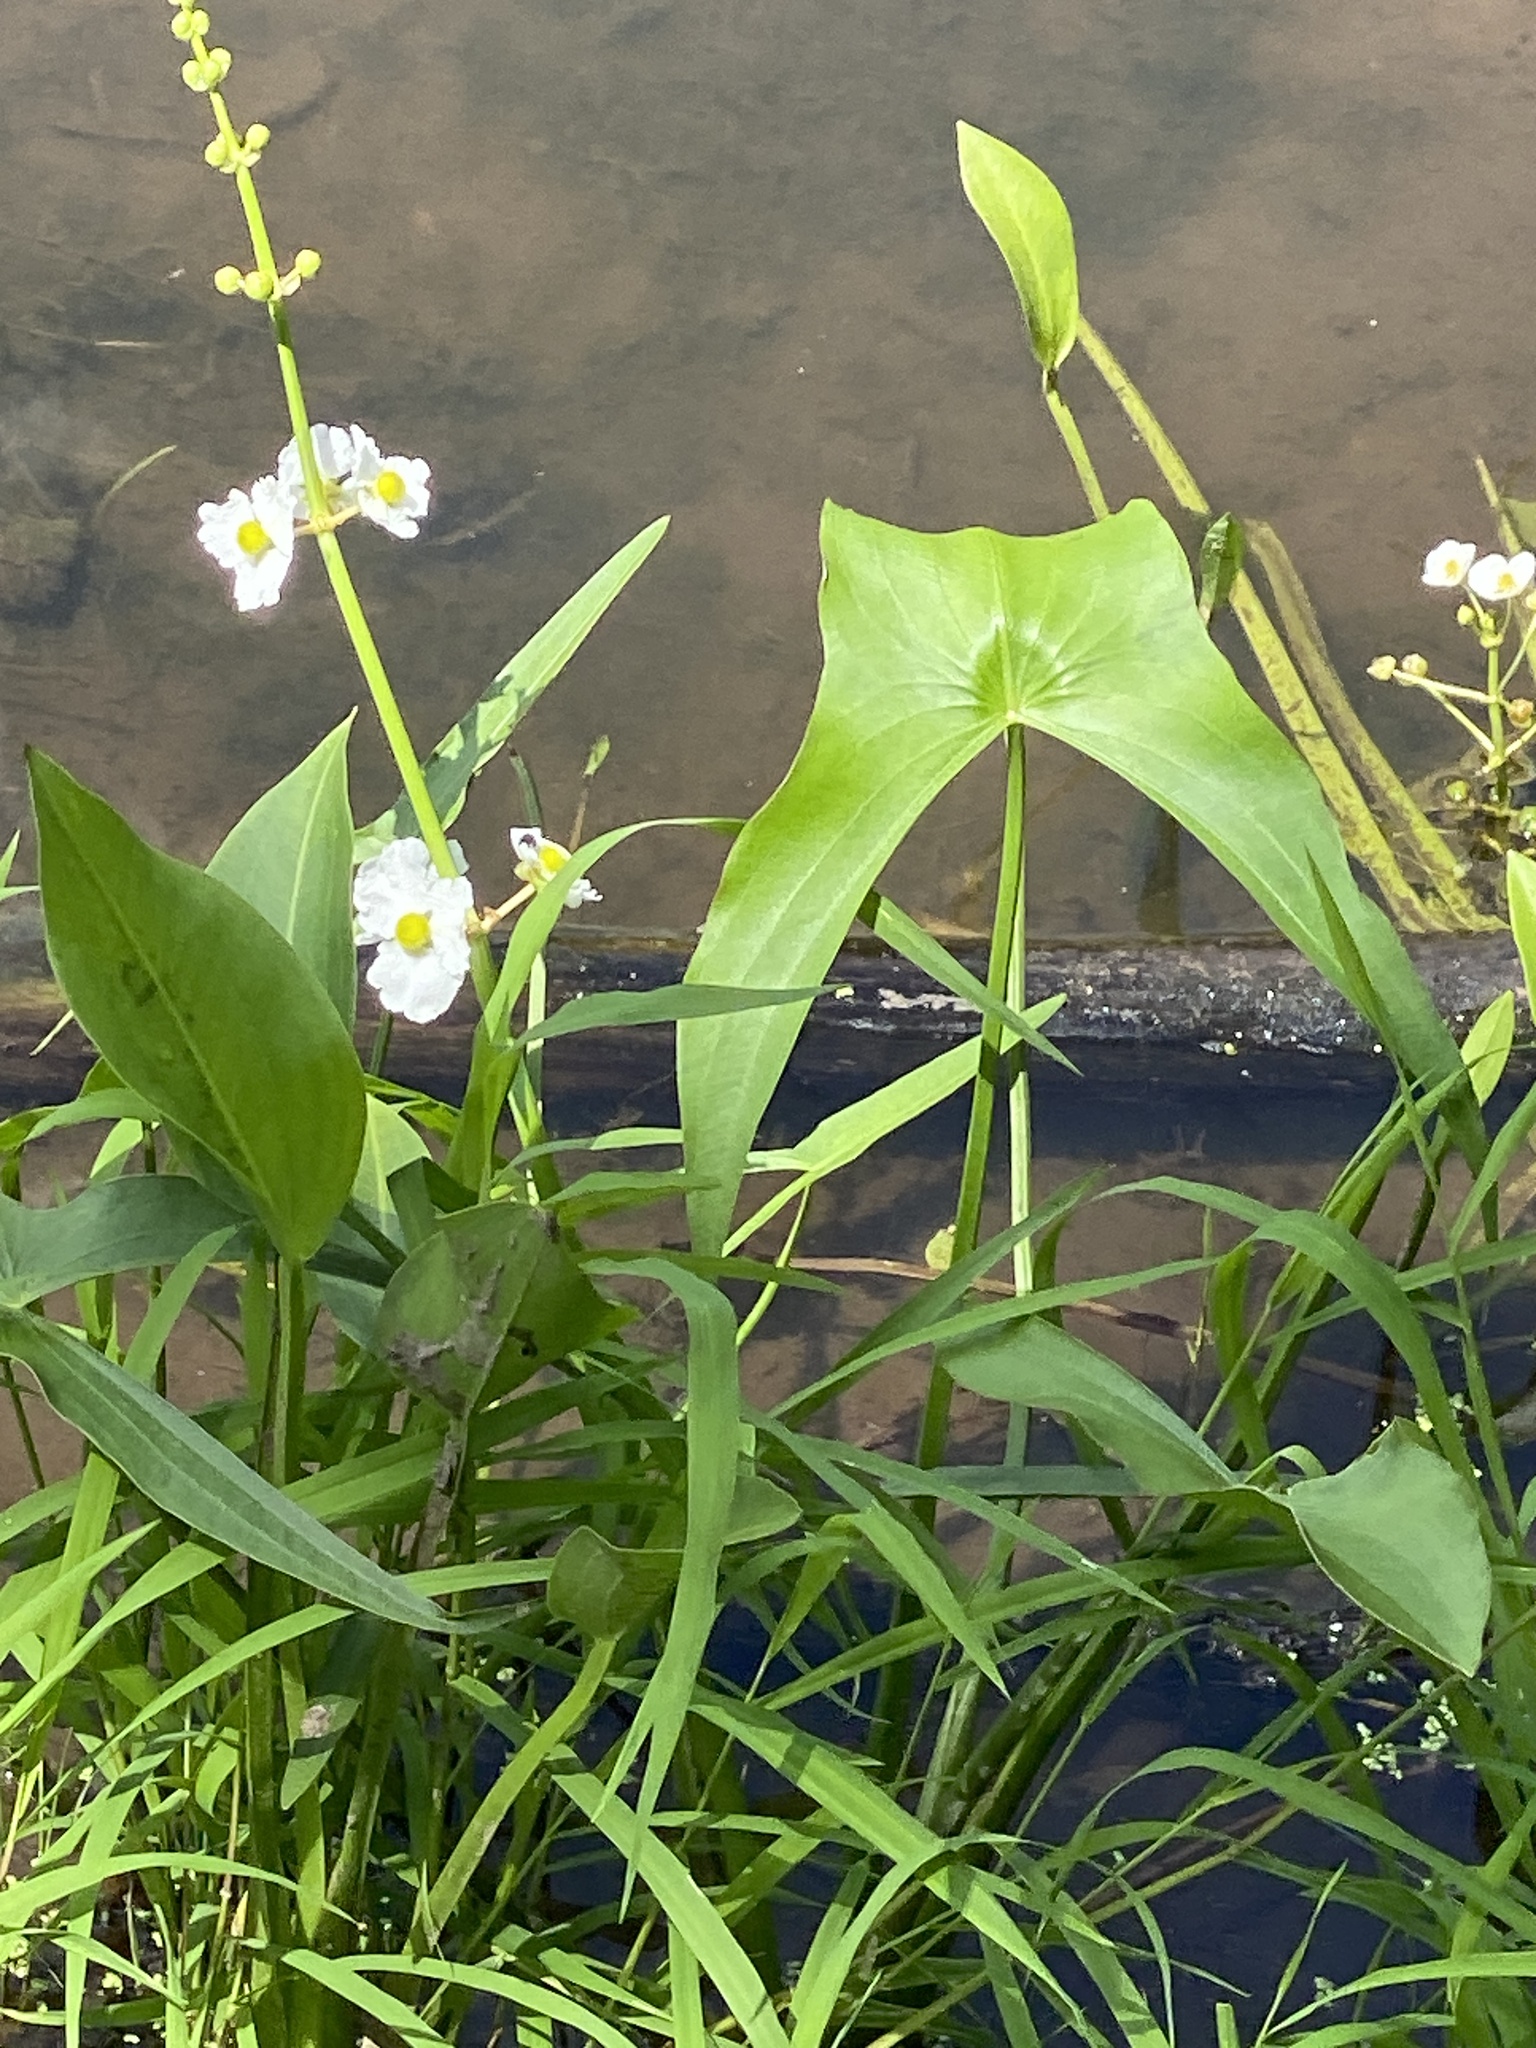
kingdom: Plantae
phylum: Tracheophyta
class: Liliopsida
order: Alismatales
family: Alismataceae
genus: Sagittaria
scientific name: Sagittaria latifolia
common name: Duck-potato
